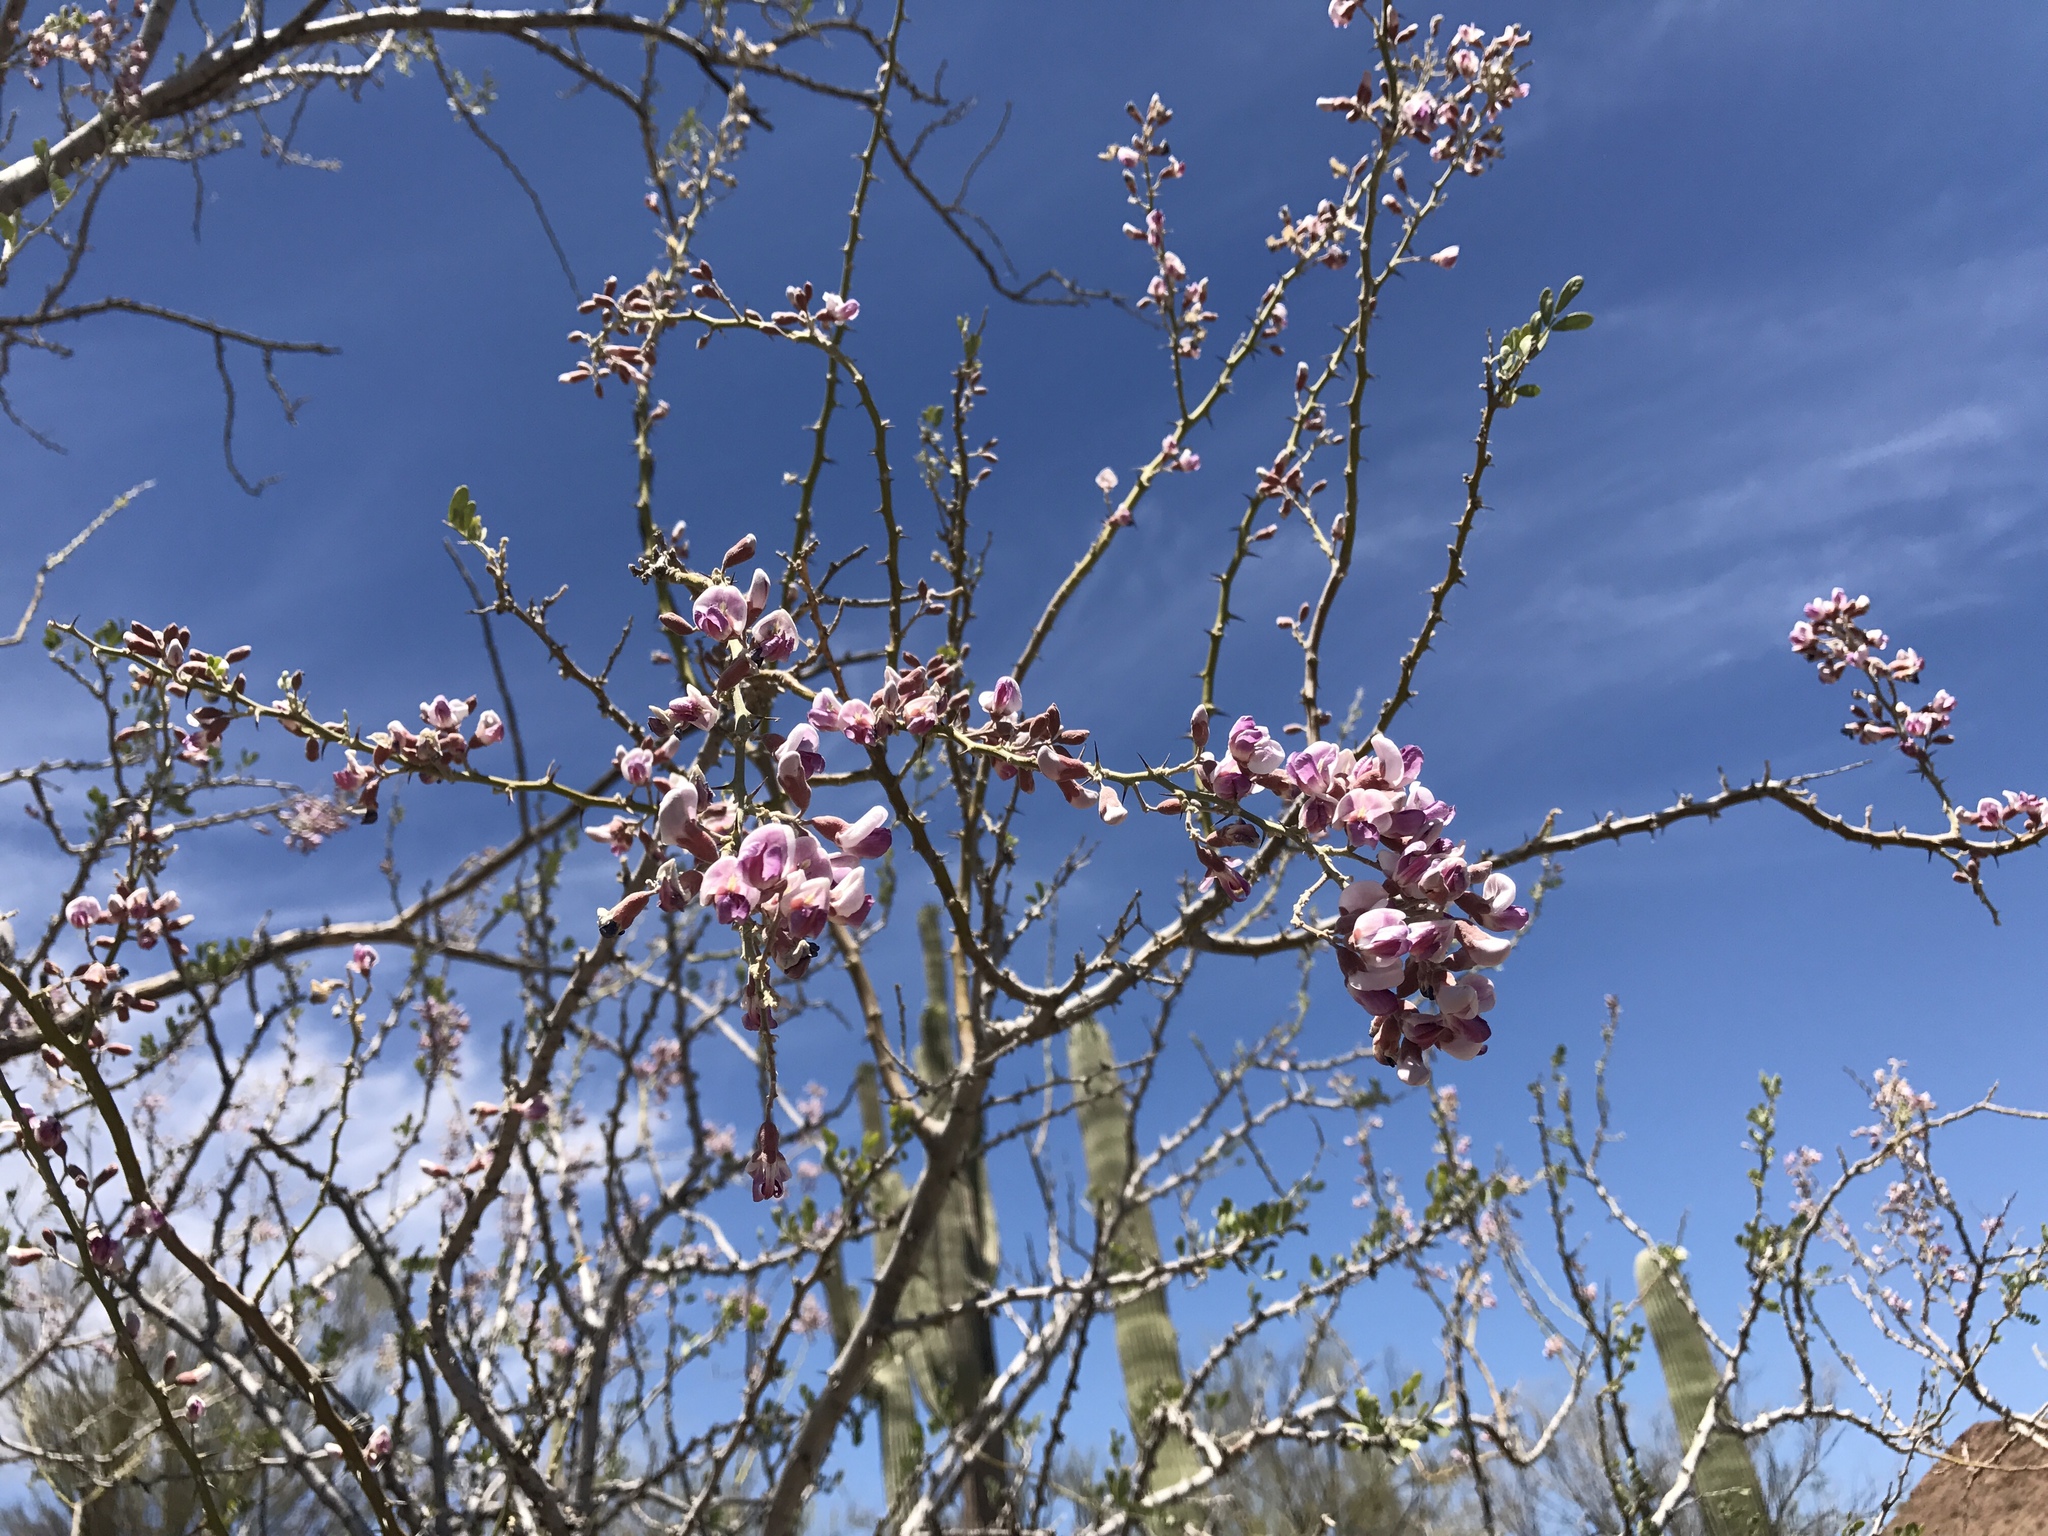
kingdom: Plantae
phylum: Tracheophyta
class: Magnoliopsida
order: Fabales
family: Fabaceae
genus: Olneya
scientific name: Olneya tesota
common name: Desert ironwood
